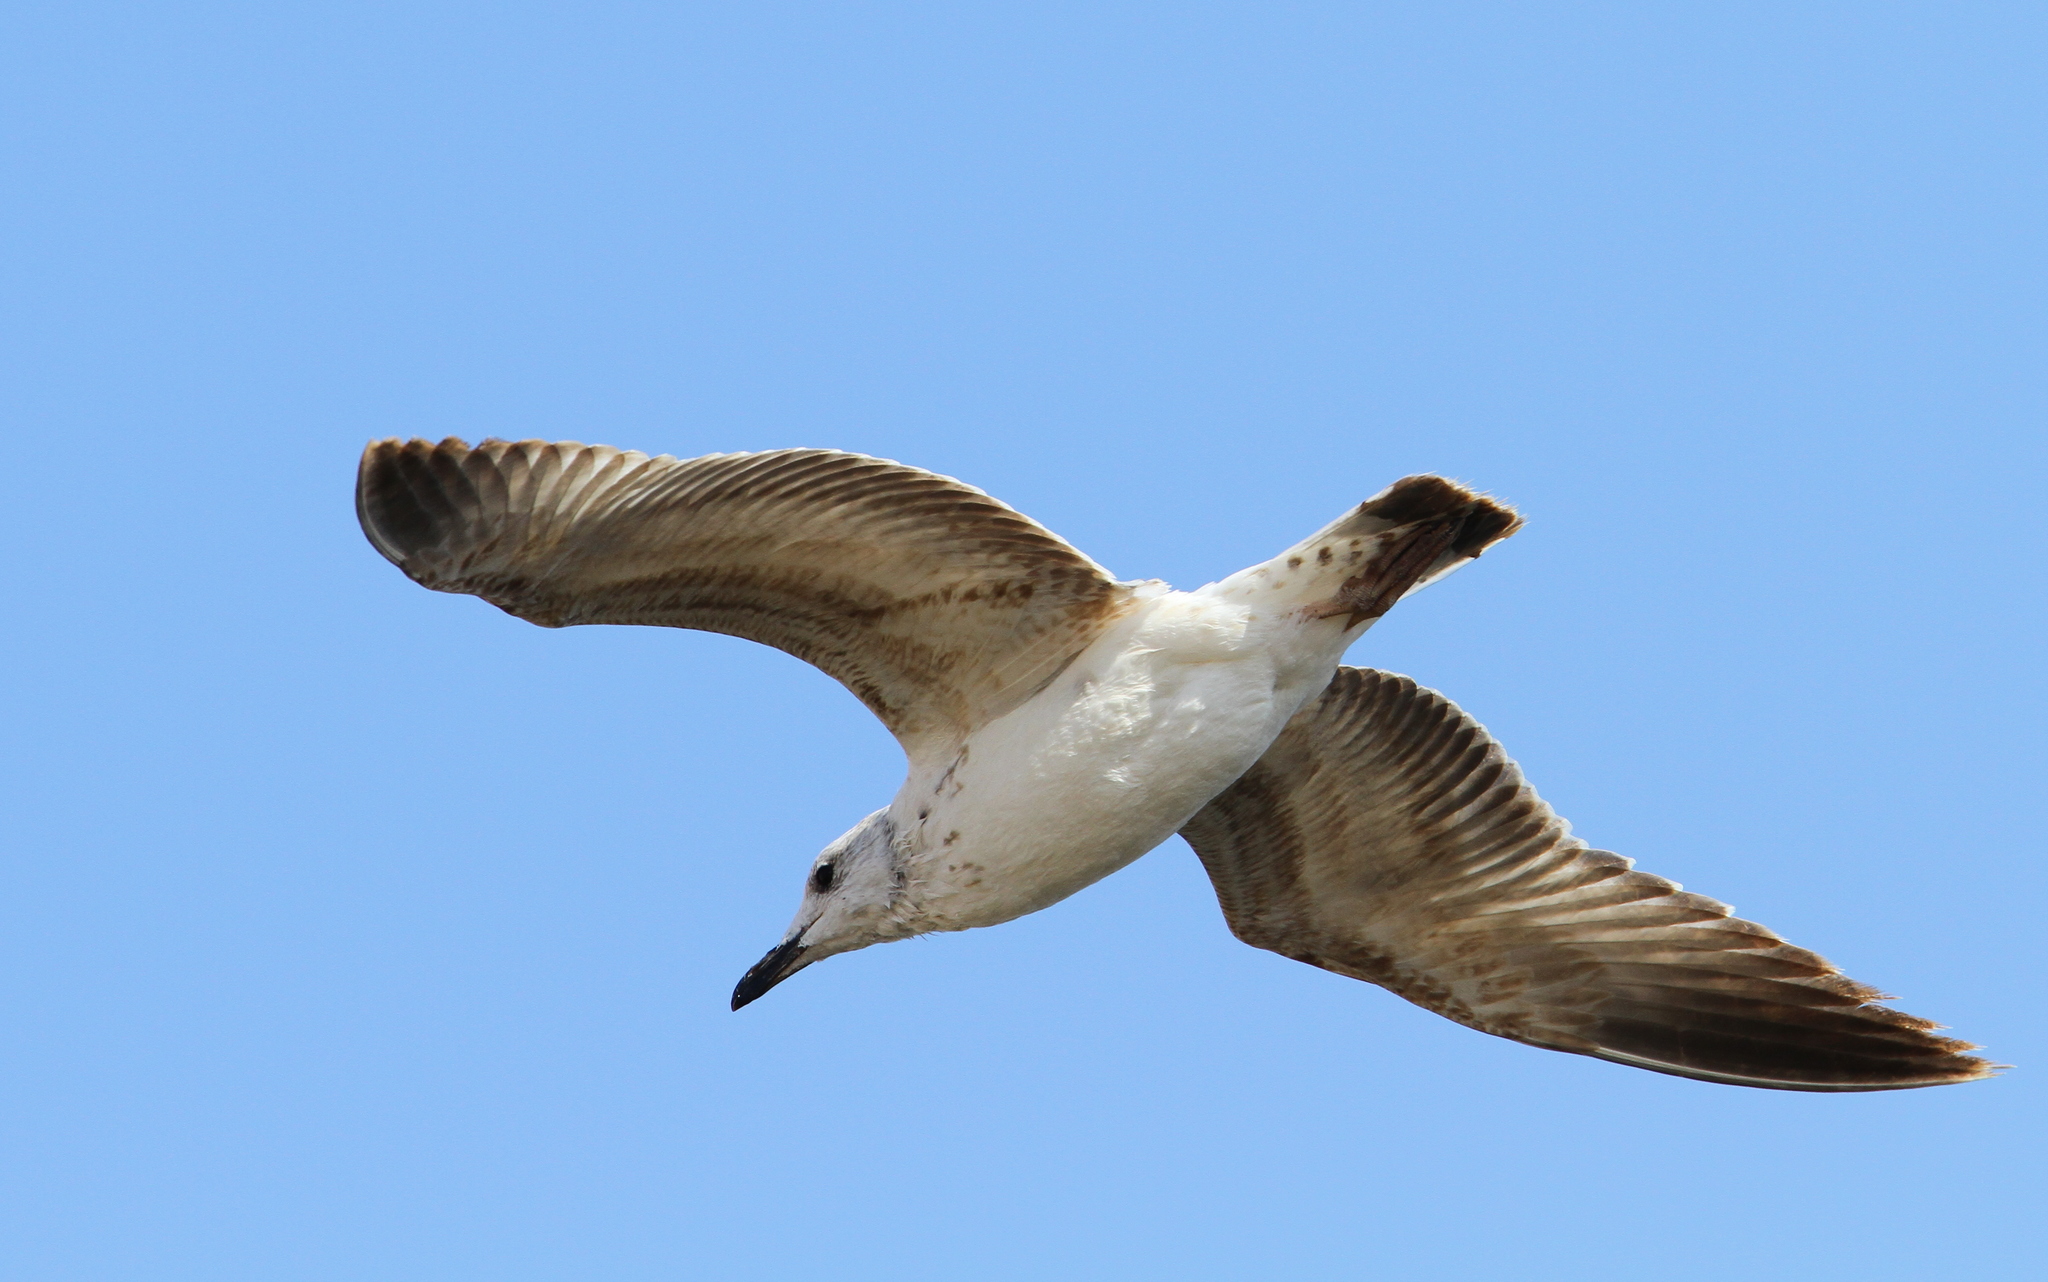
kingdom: Animalia
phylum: Chordata
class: Aves
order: Charadriiformes
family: Laridae
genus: Larus
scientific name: Larus armenicus
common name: Armenian gull
